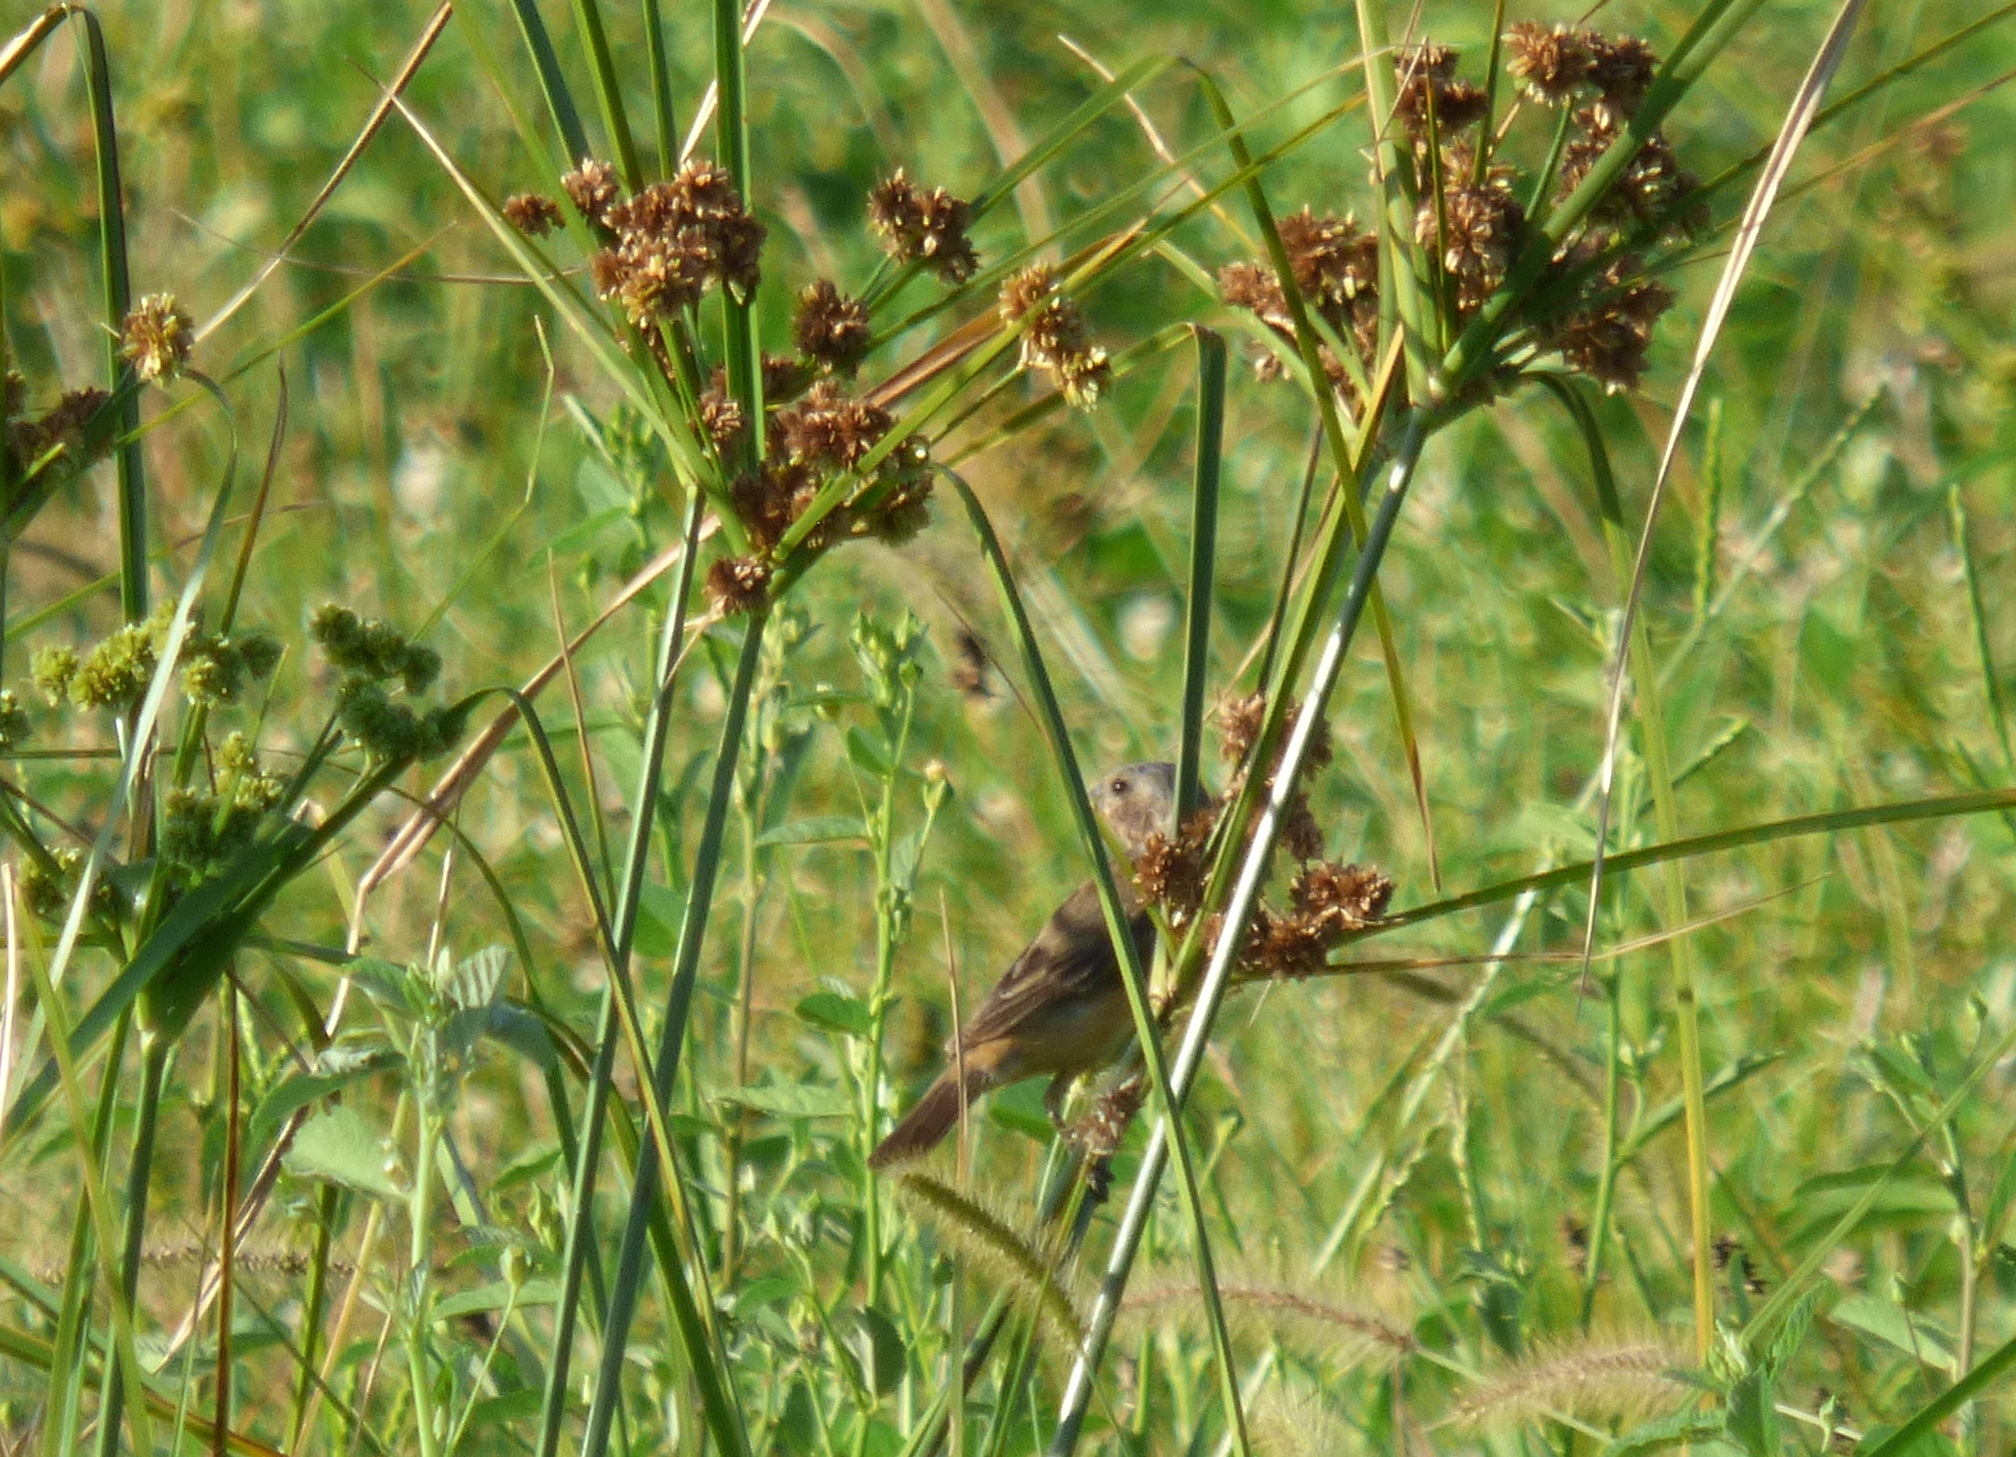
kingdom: Animalia
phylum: Chordata
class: Aves
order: Passeriformes
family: Thraupidae
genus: Sporophila
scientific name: Sporophila ruficollis
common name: Dark-throated seedeater
